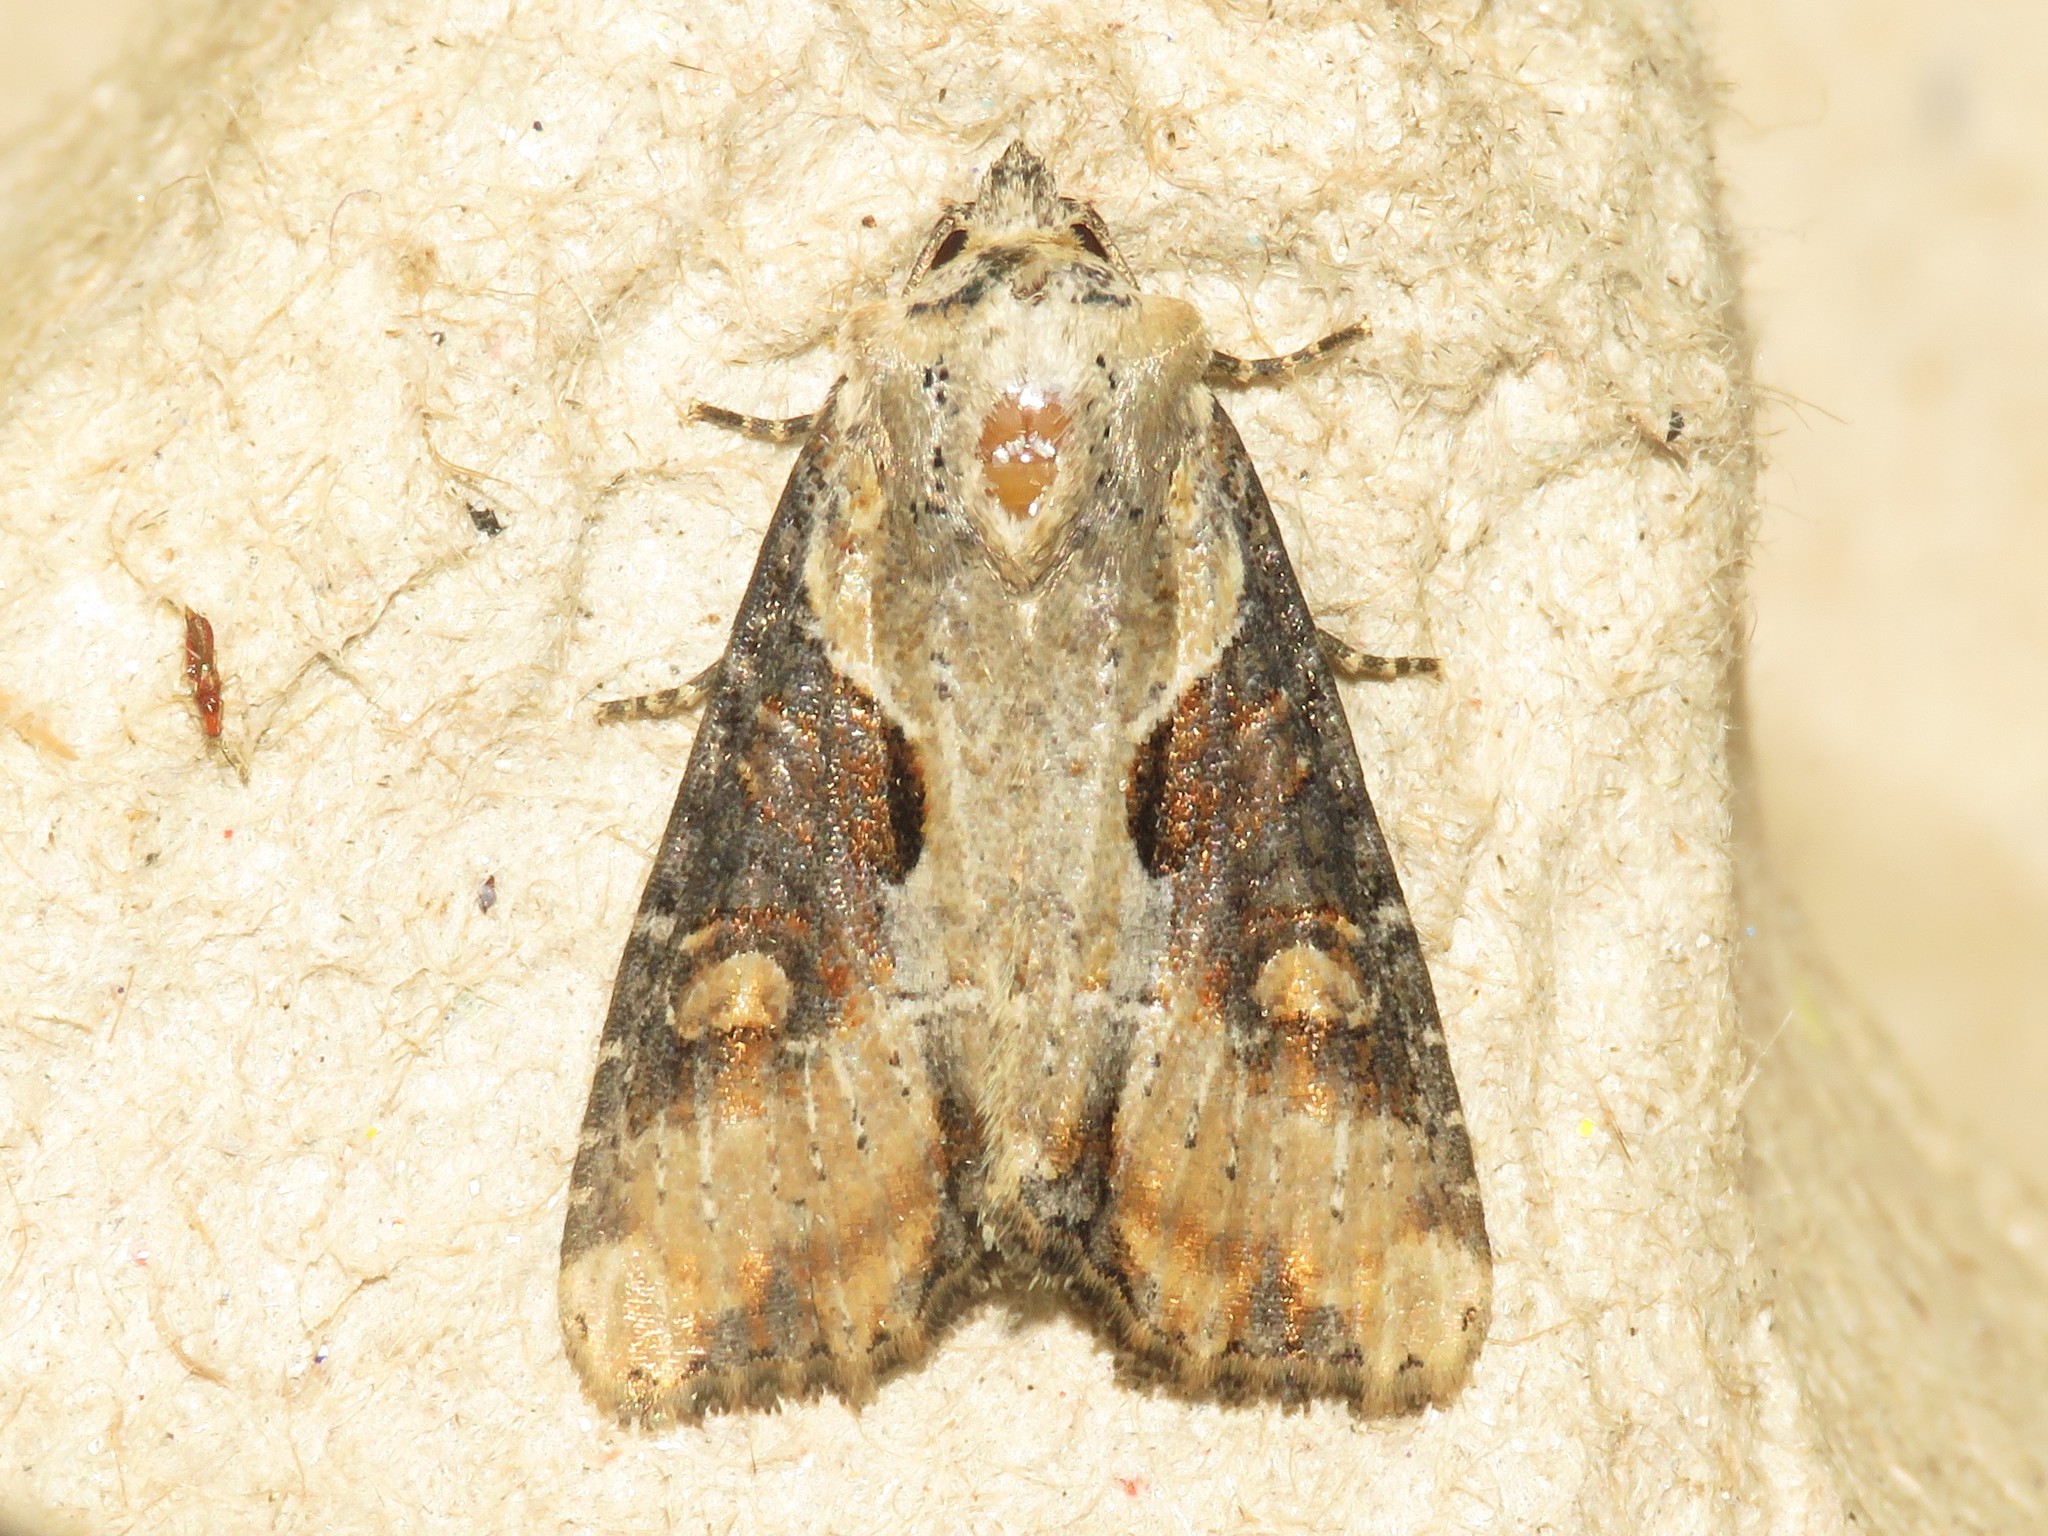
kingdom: Animalia
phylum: Arthropoda
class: Insecta
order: Lepidoptera
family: Noctuidae
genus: Lateroligia
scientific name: Lateroligia ophiogramma
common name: Double lobed
